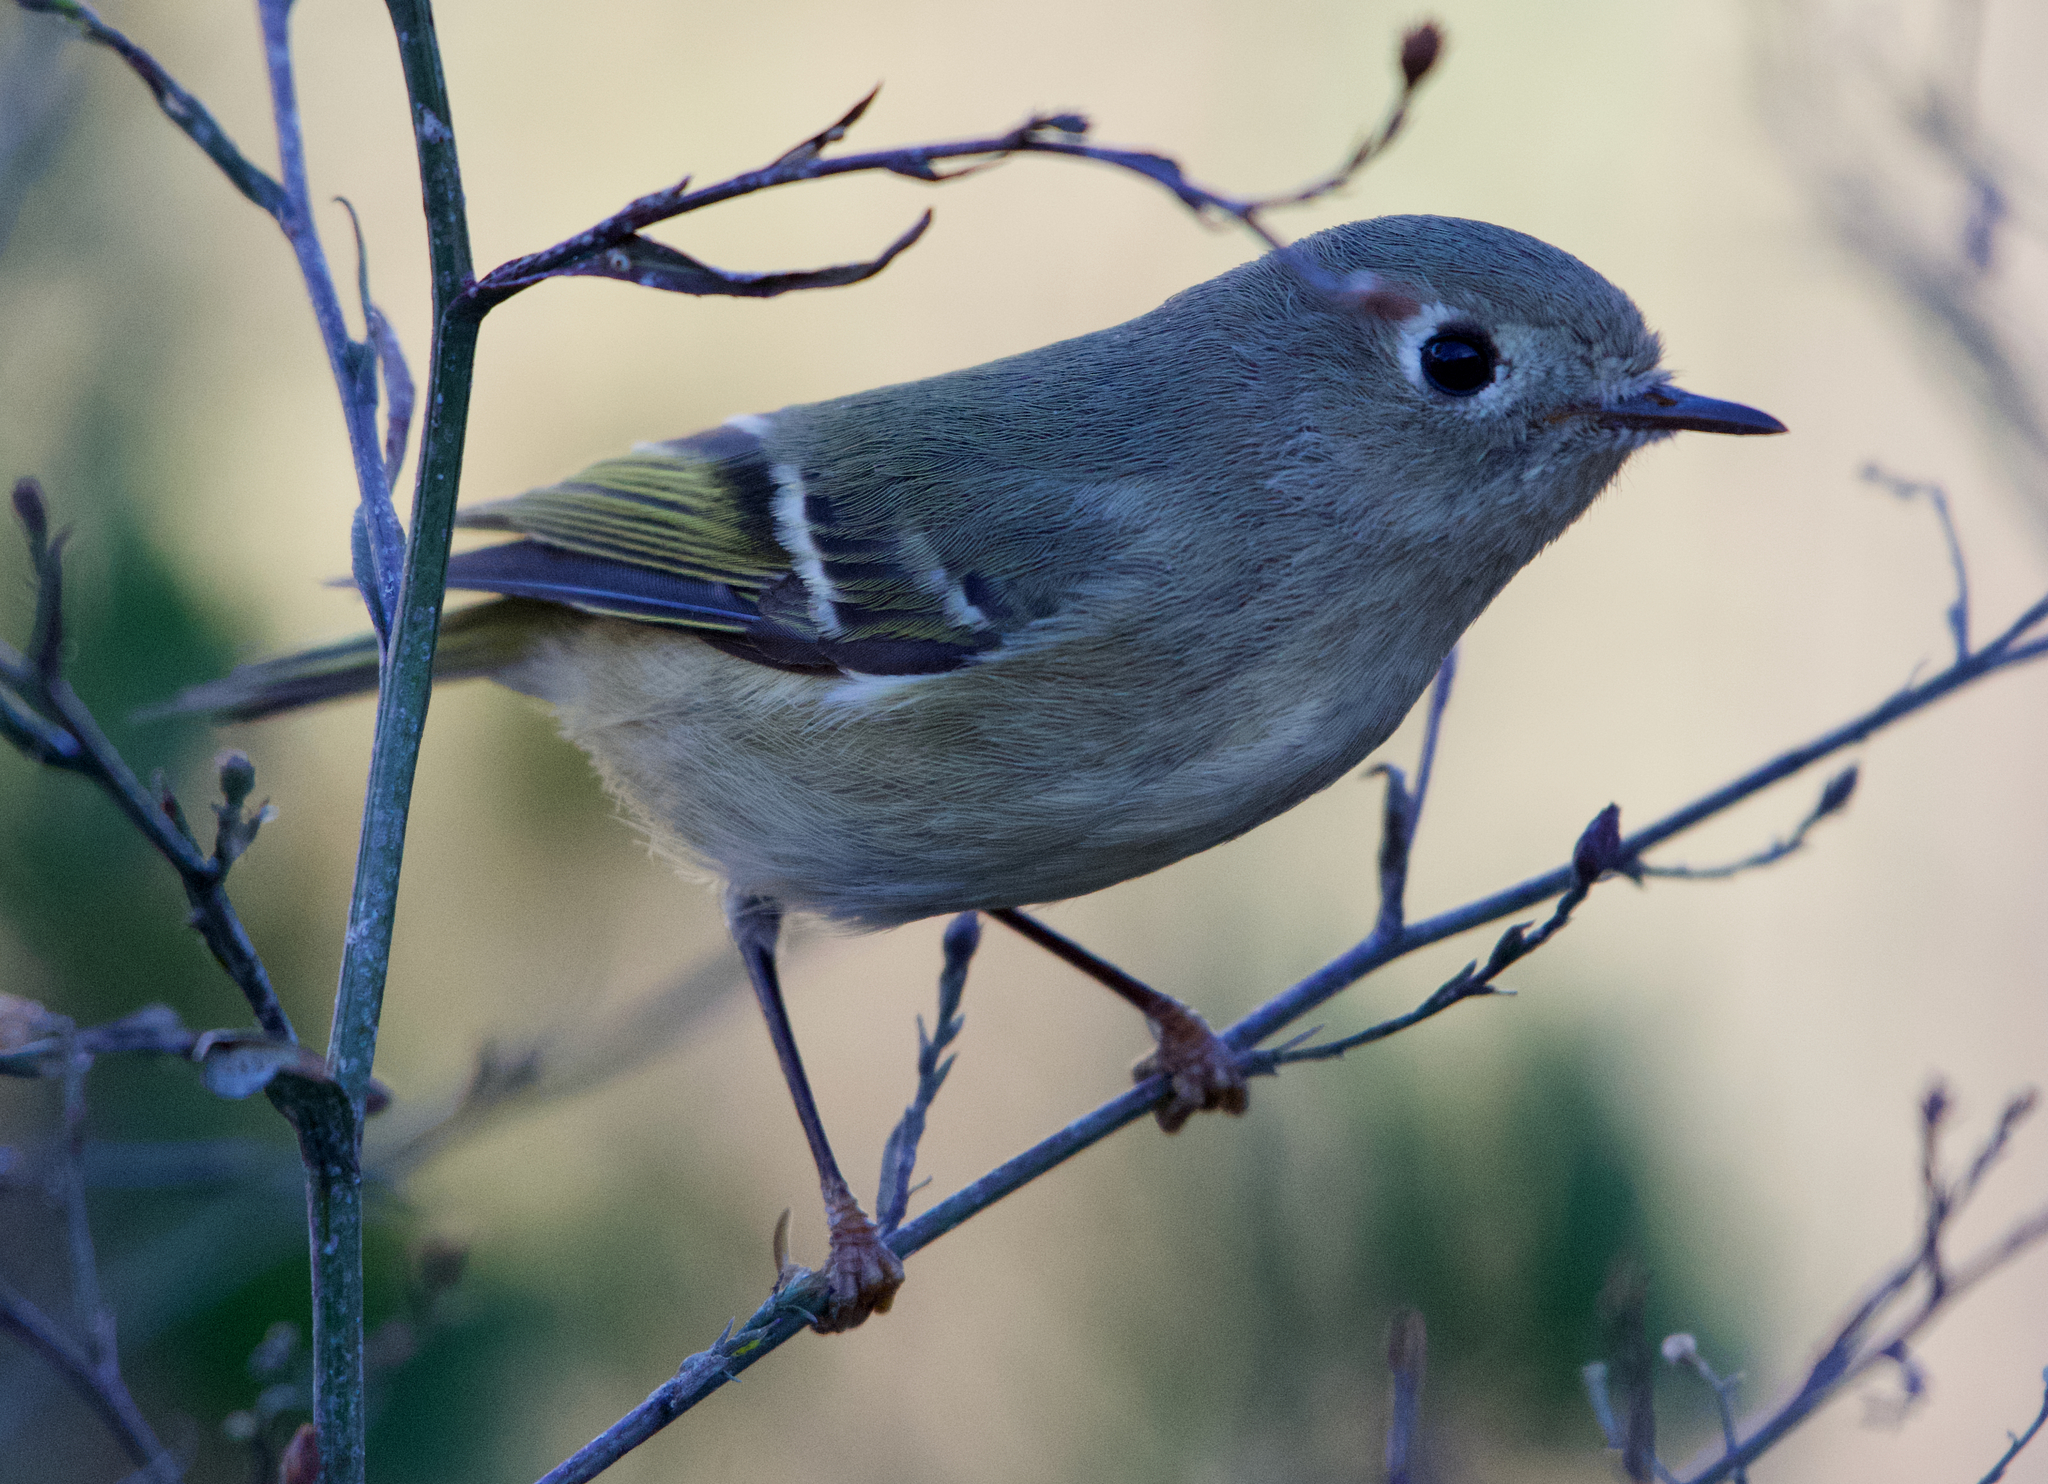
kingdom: Animalia
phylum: Chordata
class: Aves
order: Passeriformes
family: Regulidae
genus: Regulus
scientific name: Regulus calendula
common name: Ruby-crowned kinglet
